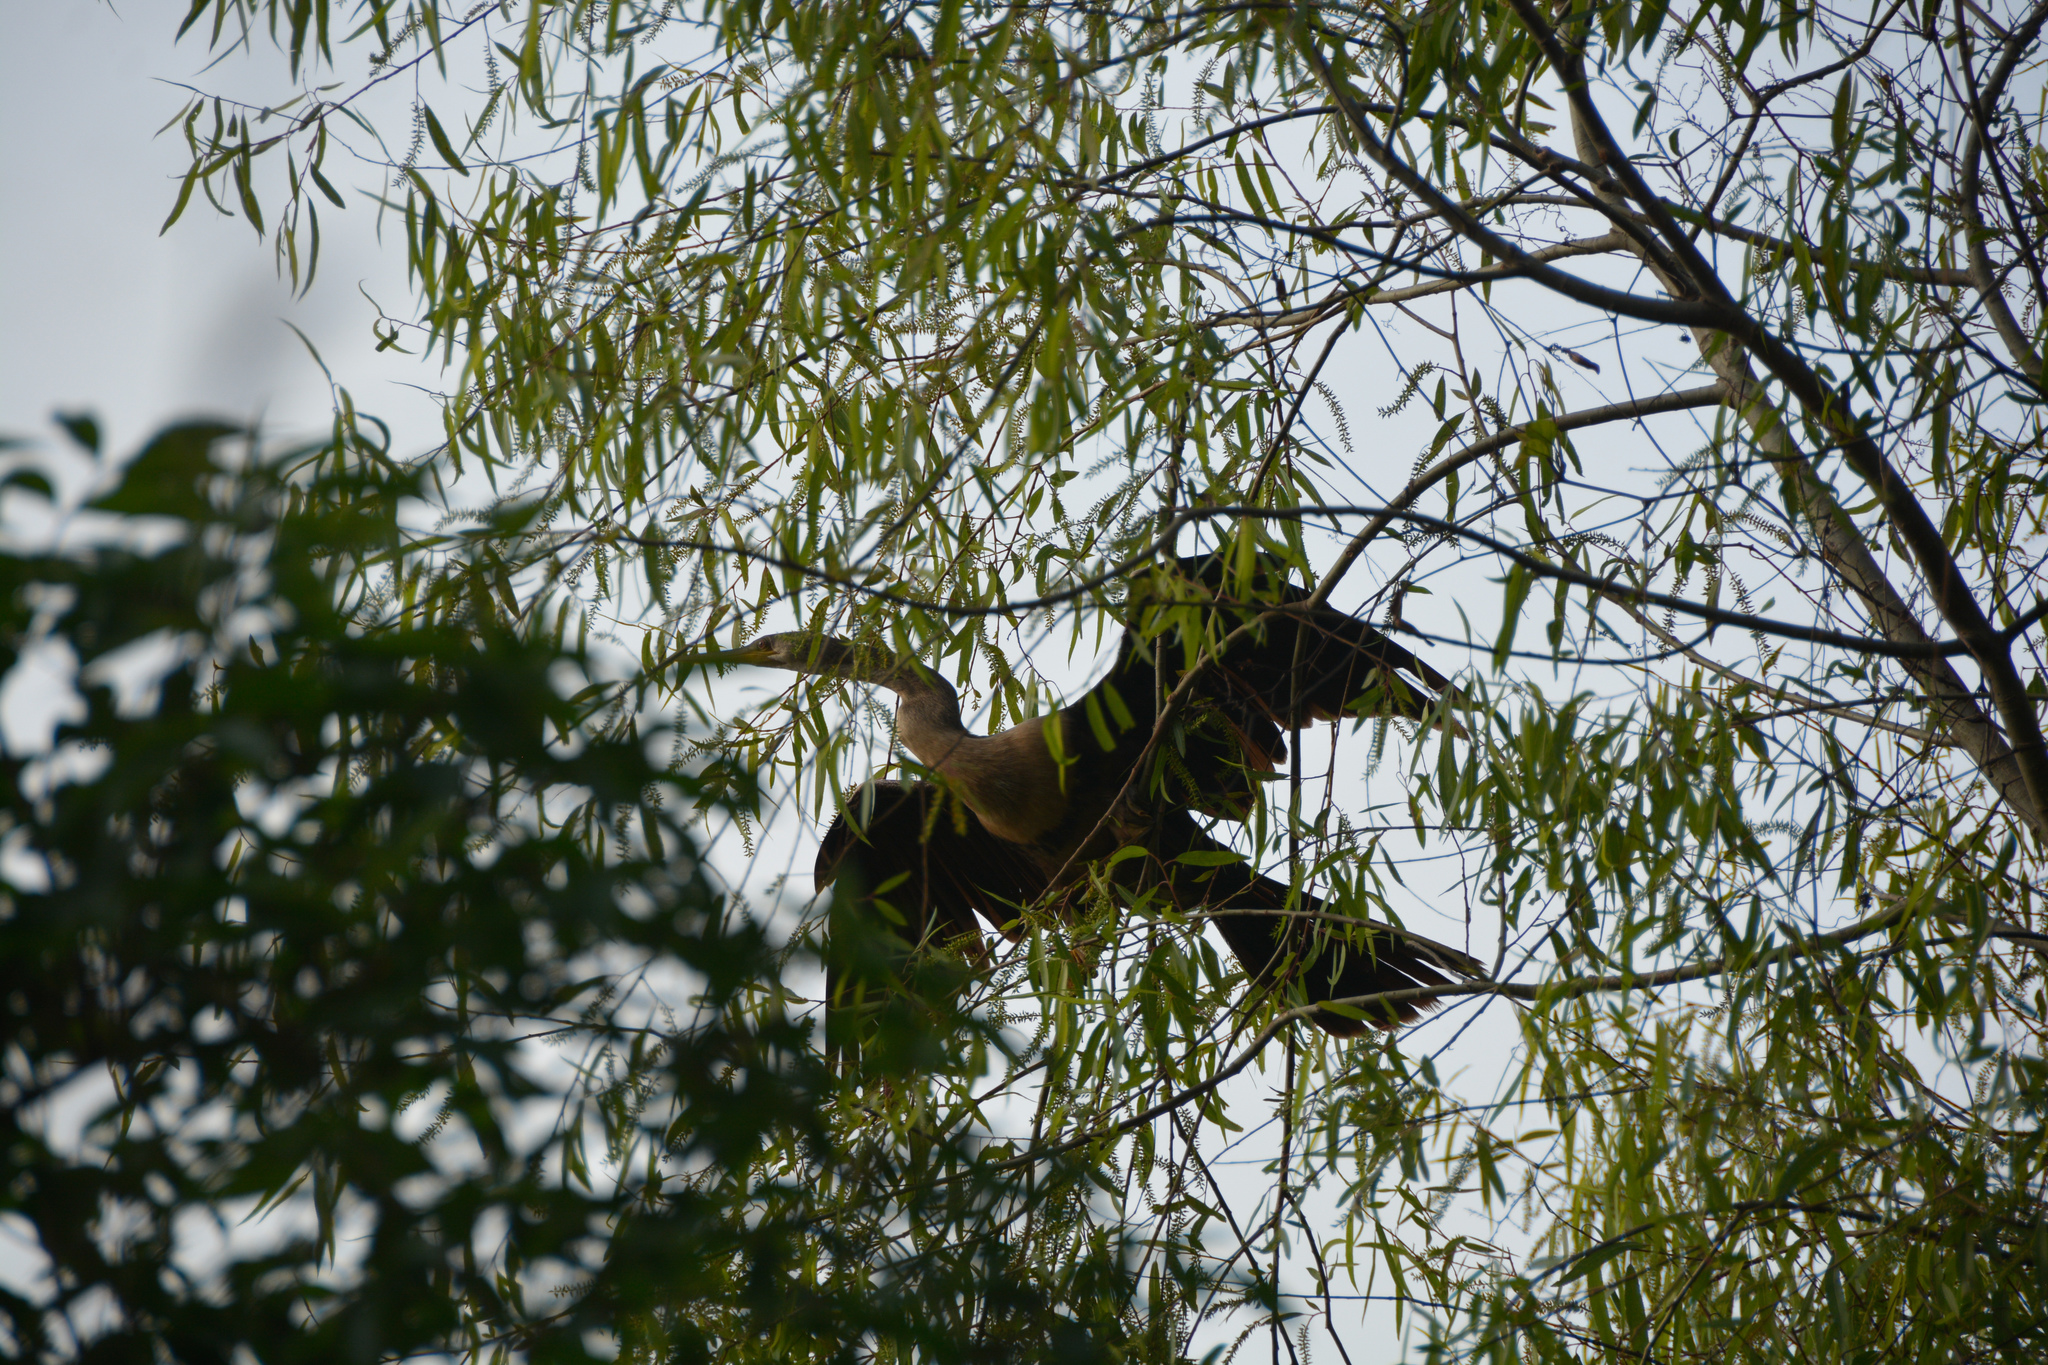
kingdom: Animalia
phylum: Chordata
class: Aves
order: Suliformes
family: Anhingidae
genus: Anhinga
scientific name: Anhinga anhinga
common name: Anhinga
